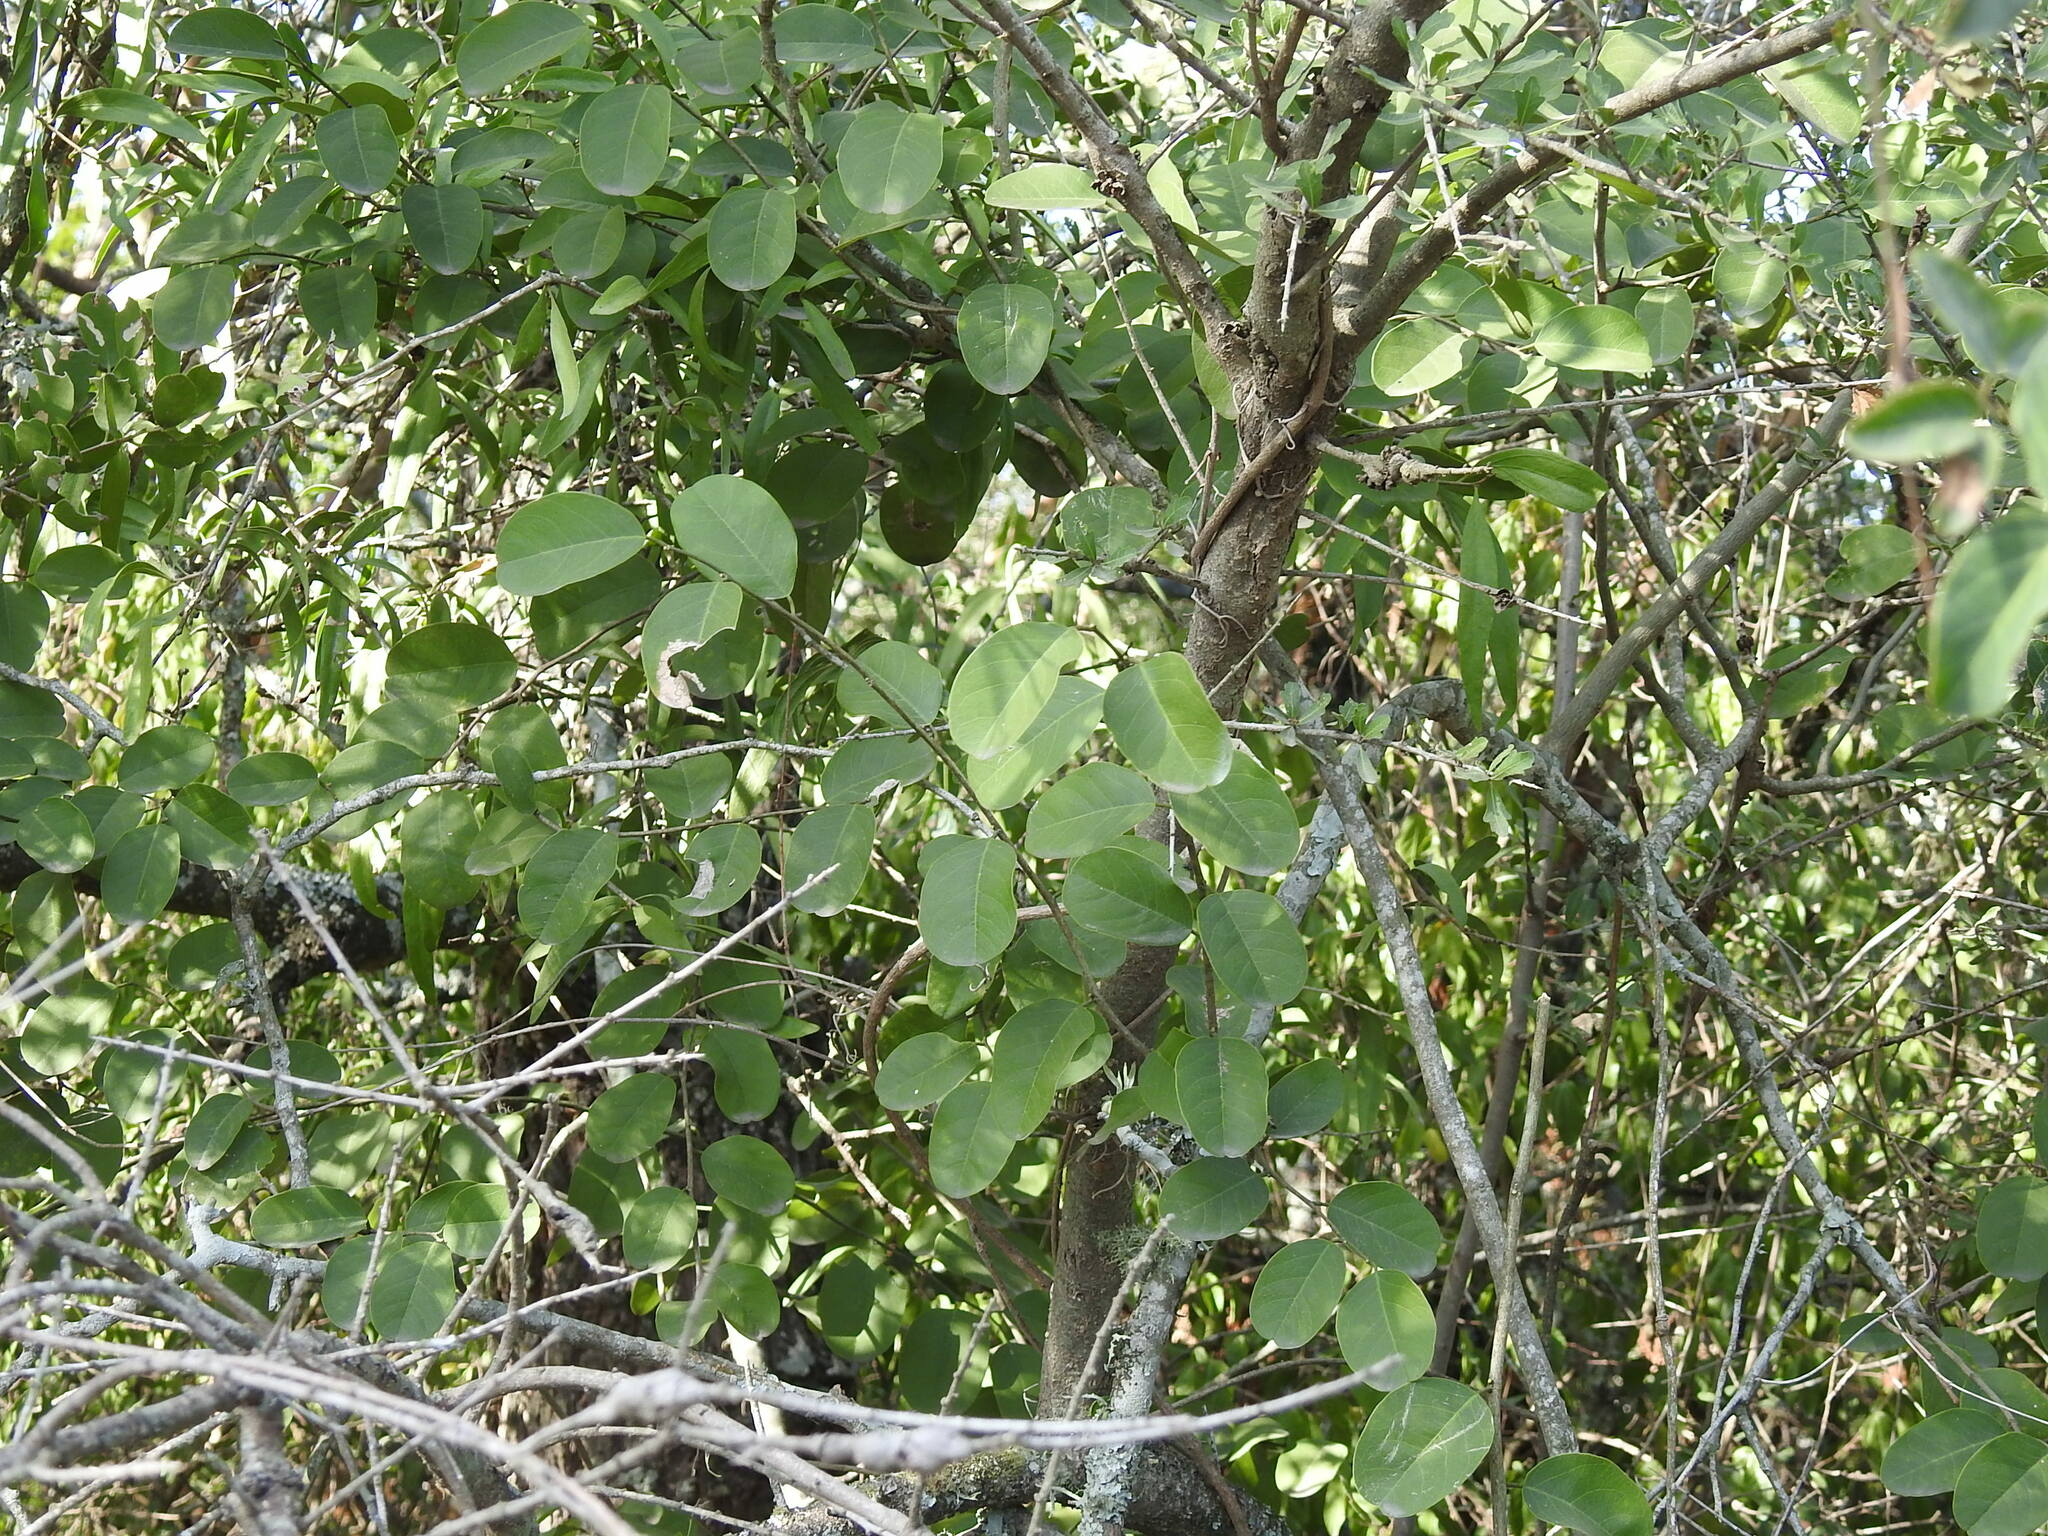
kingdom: Plantae
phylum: Tracheophyta
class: Magnoliopsida
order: Brassicales
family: Capparaceae
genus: Cynophalla
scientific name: Cynophalla retusa
